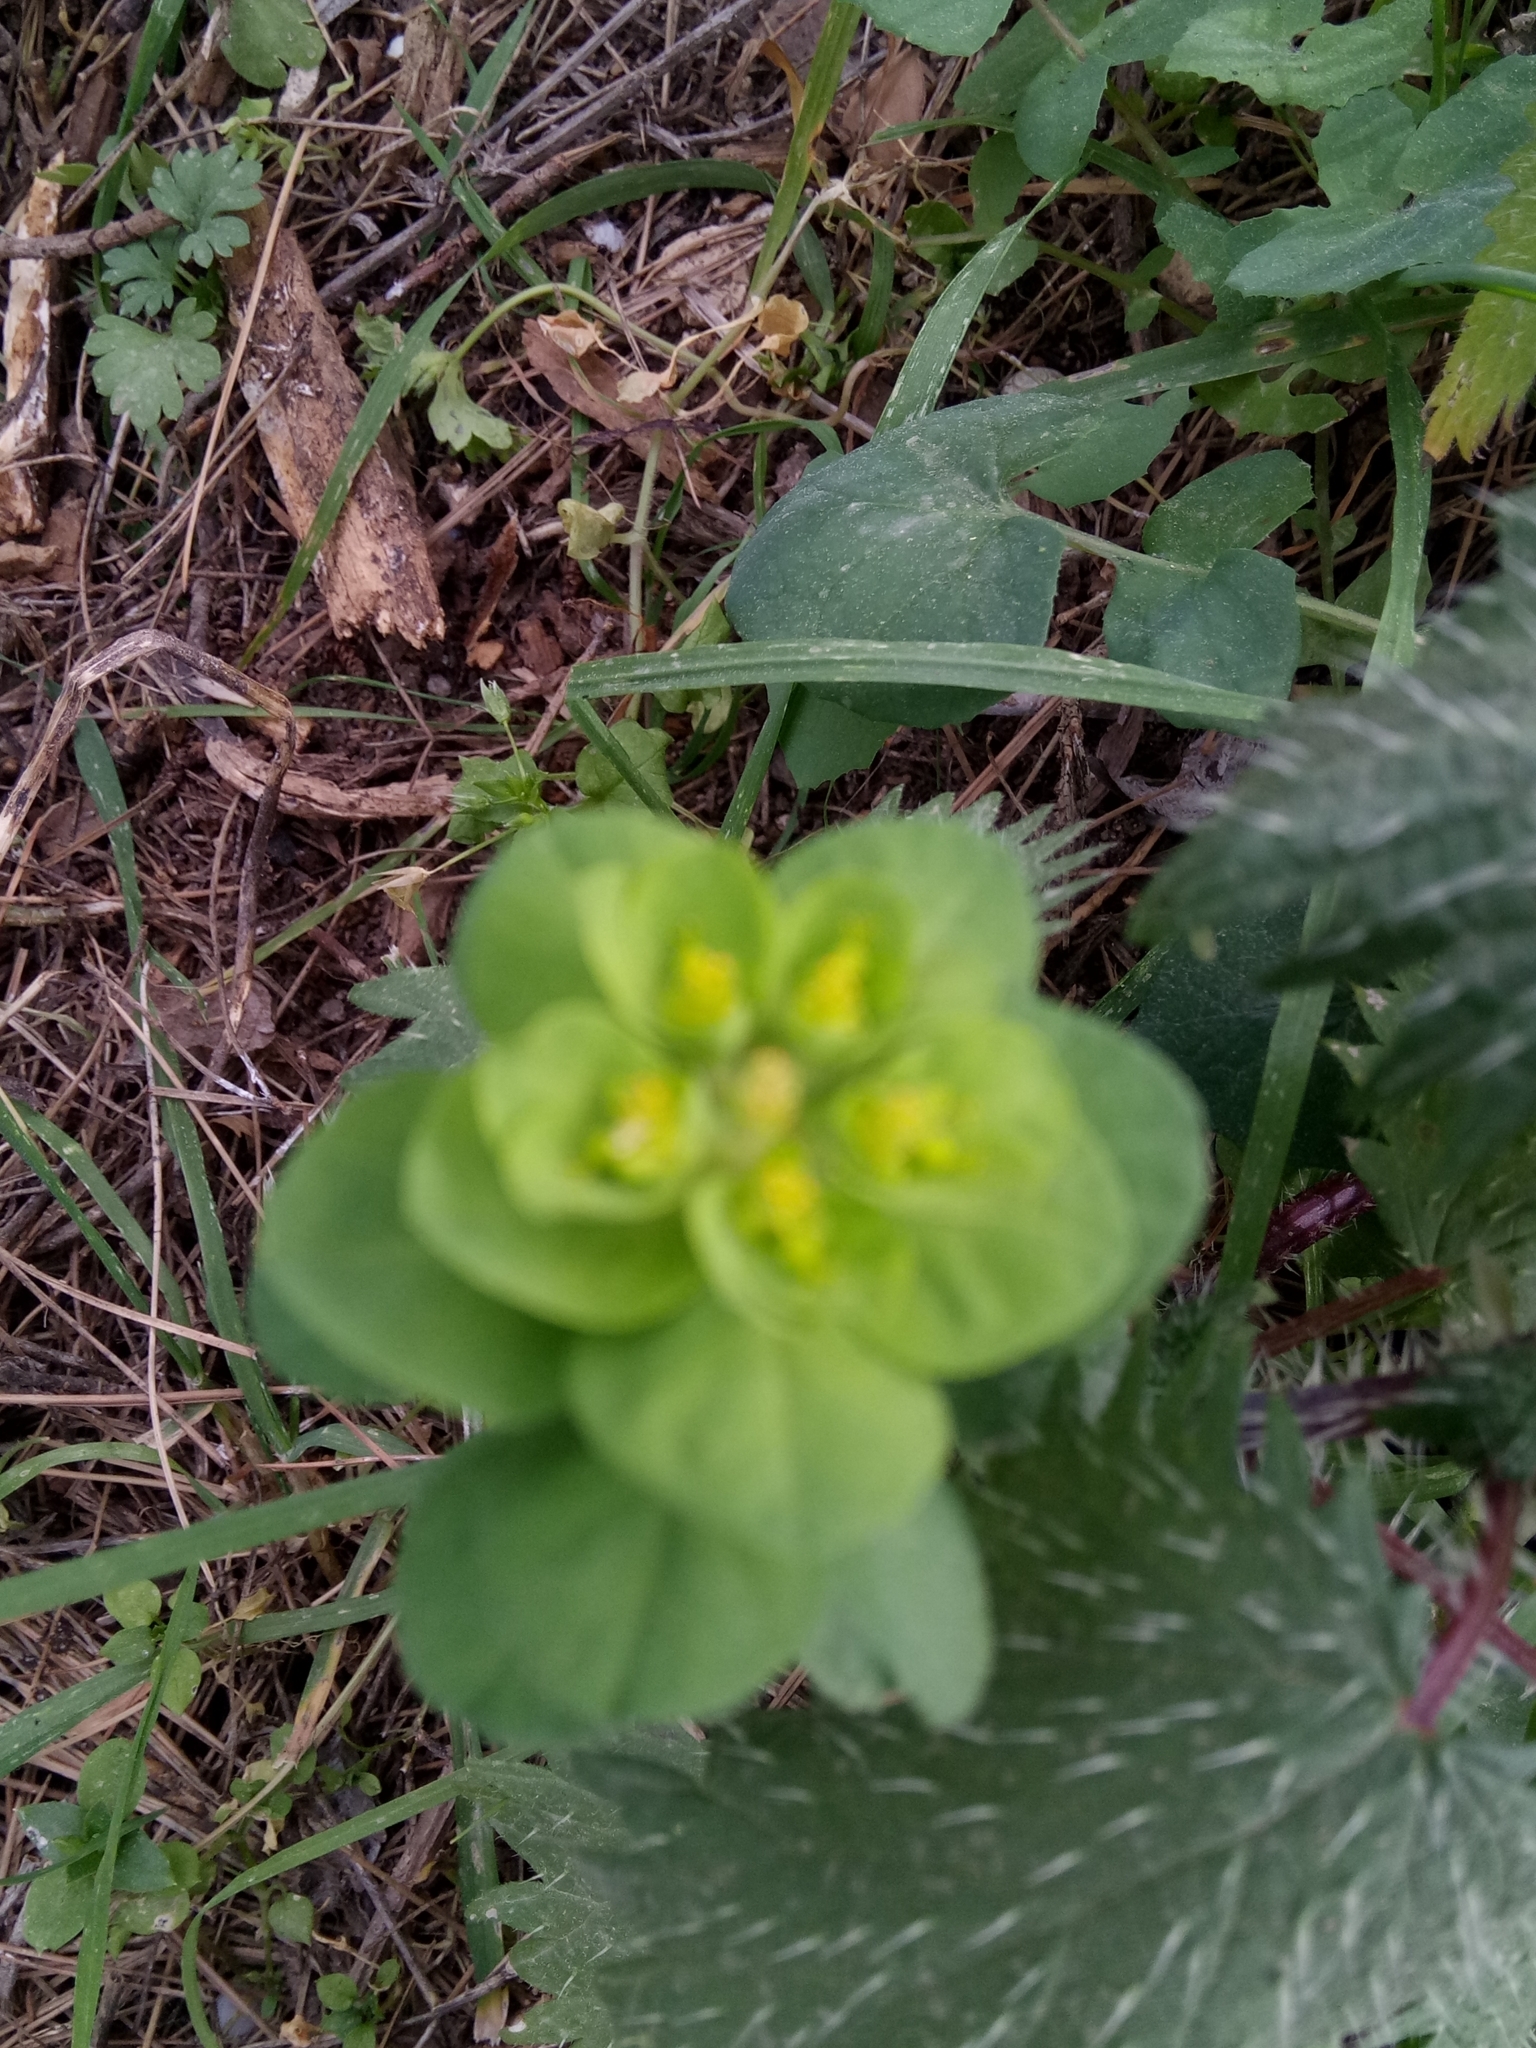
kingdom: Plantae
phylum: Tracheophyta
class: Magnoliopsida
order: Malpighiales
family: Euphorbiaceae
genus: Euphorbia
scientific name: Euphorbia helioscopia
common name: Sun spurge
